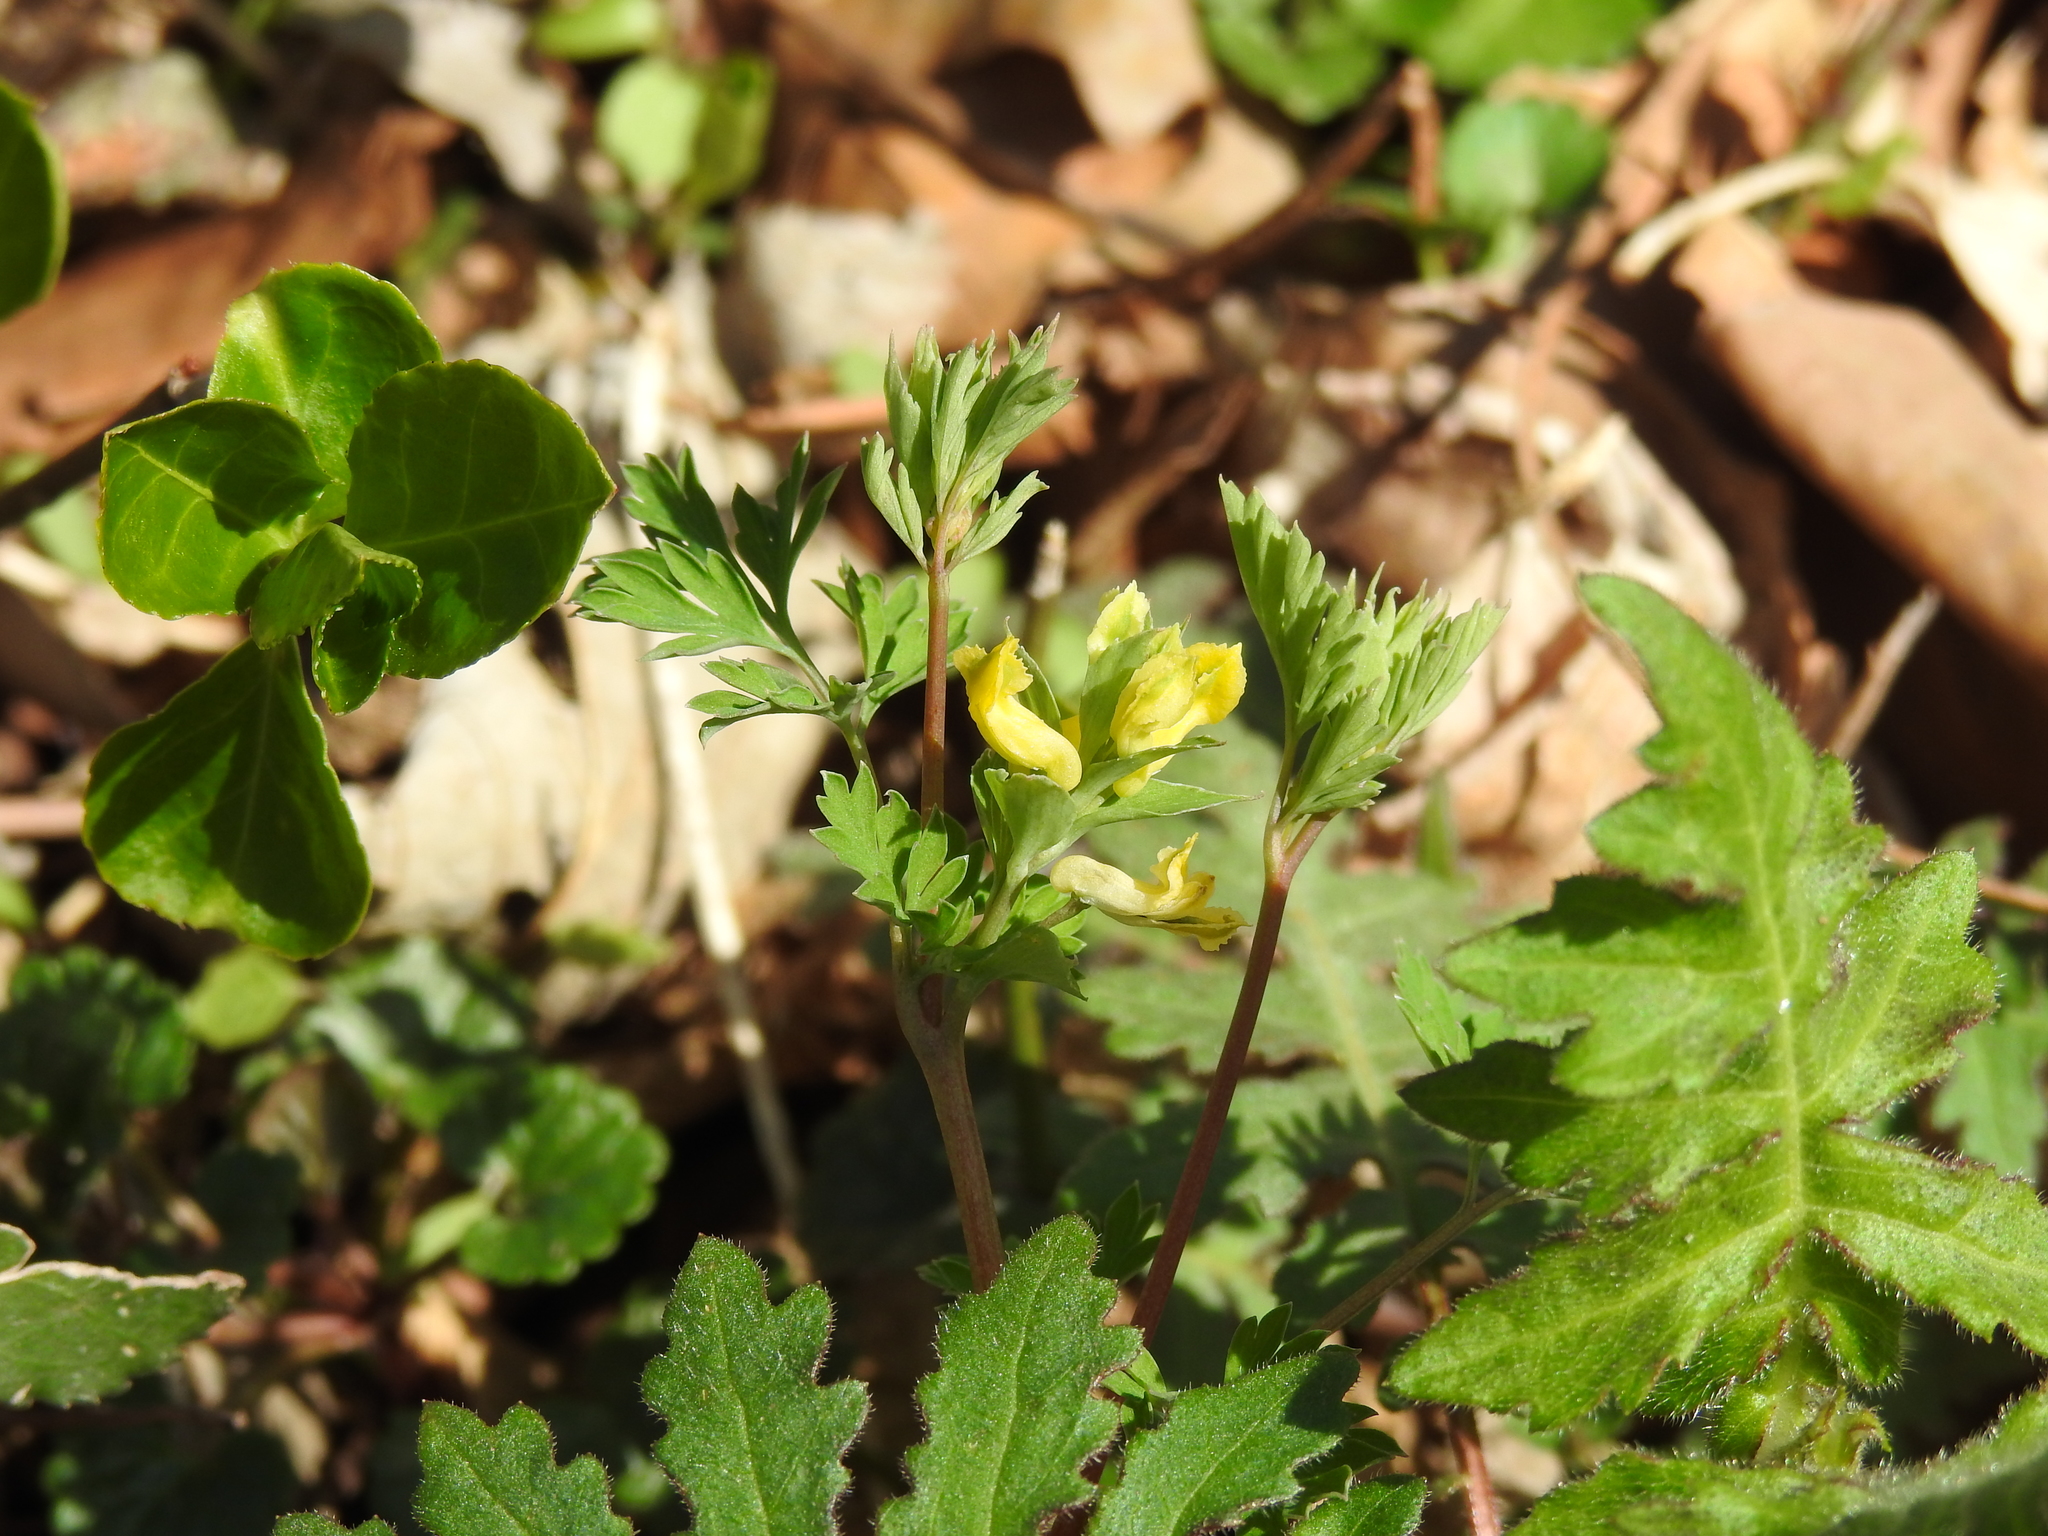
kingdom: Plantae
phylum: Tracheophyta
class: Magnoliopsida
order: Ranunculales
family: Papaveraceae
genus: Corydalis
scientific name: Corydalis flavula
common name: Yellow corydalis
